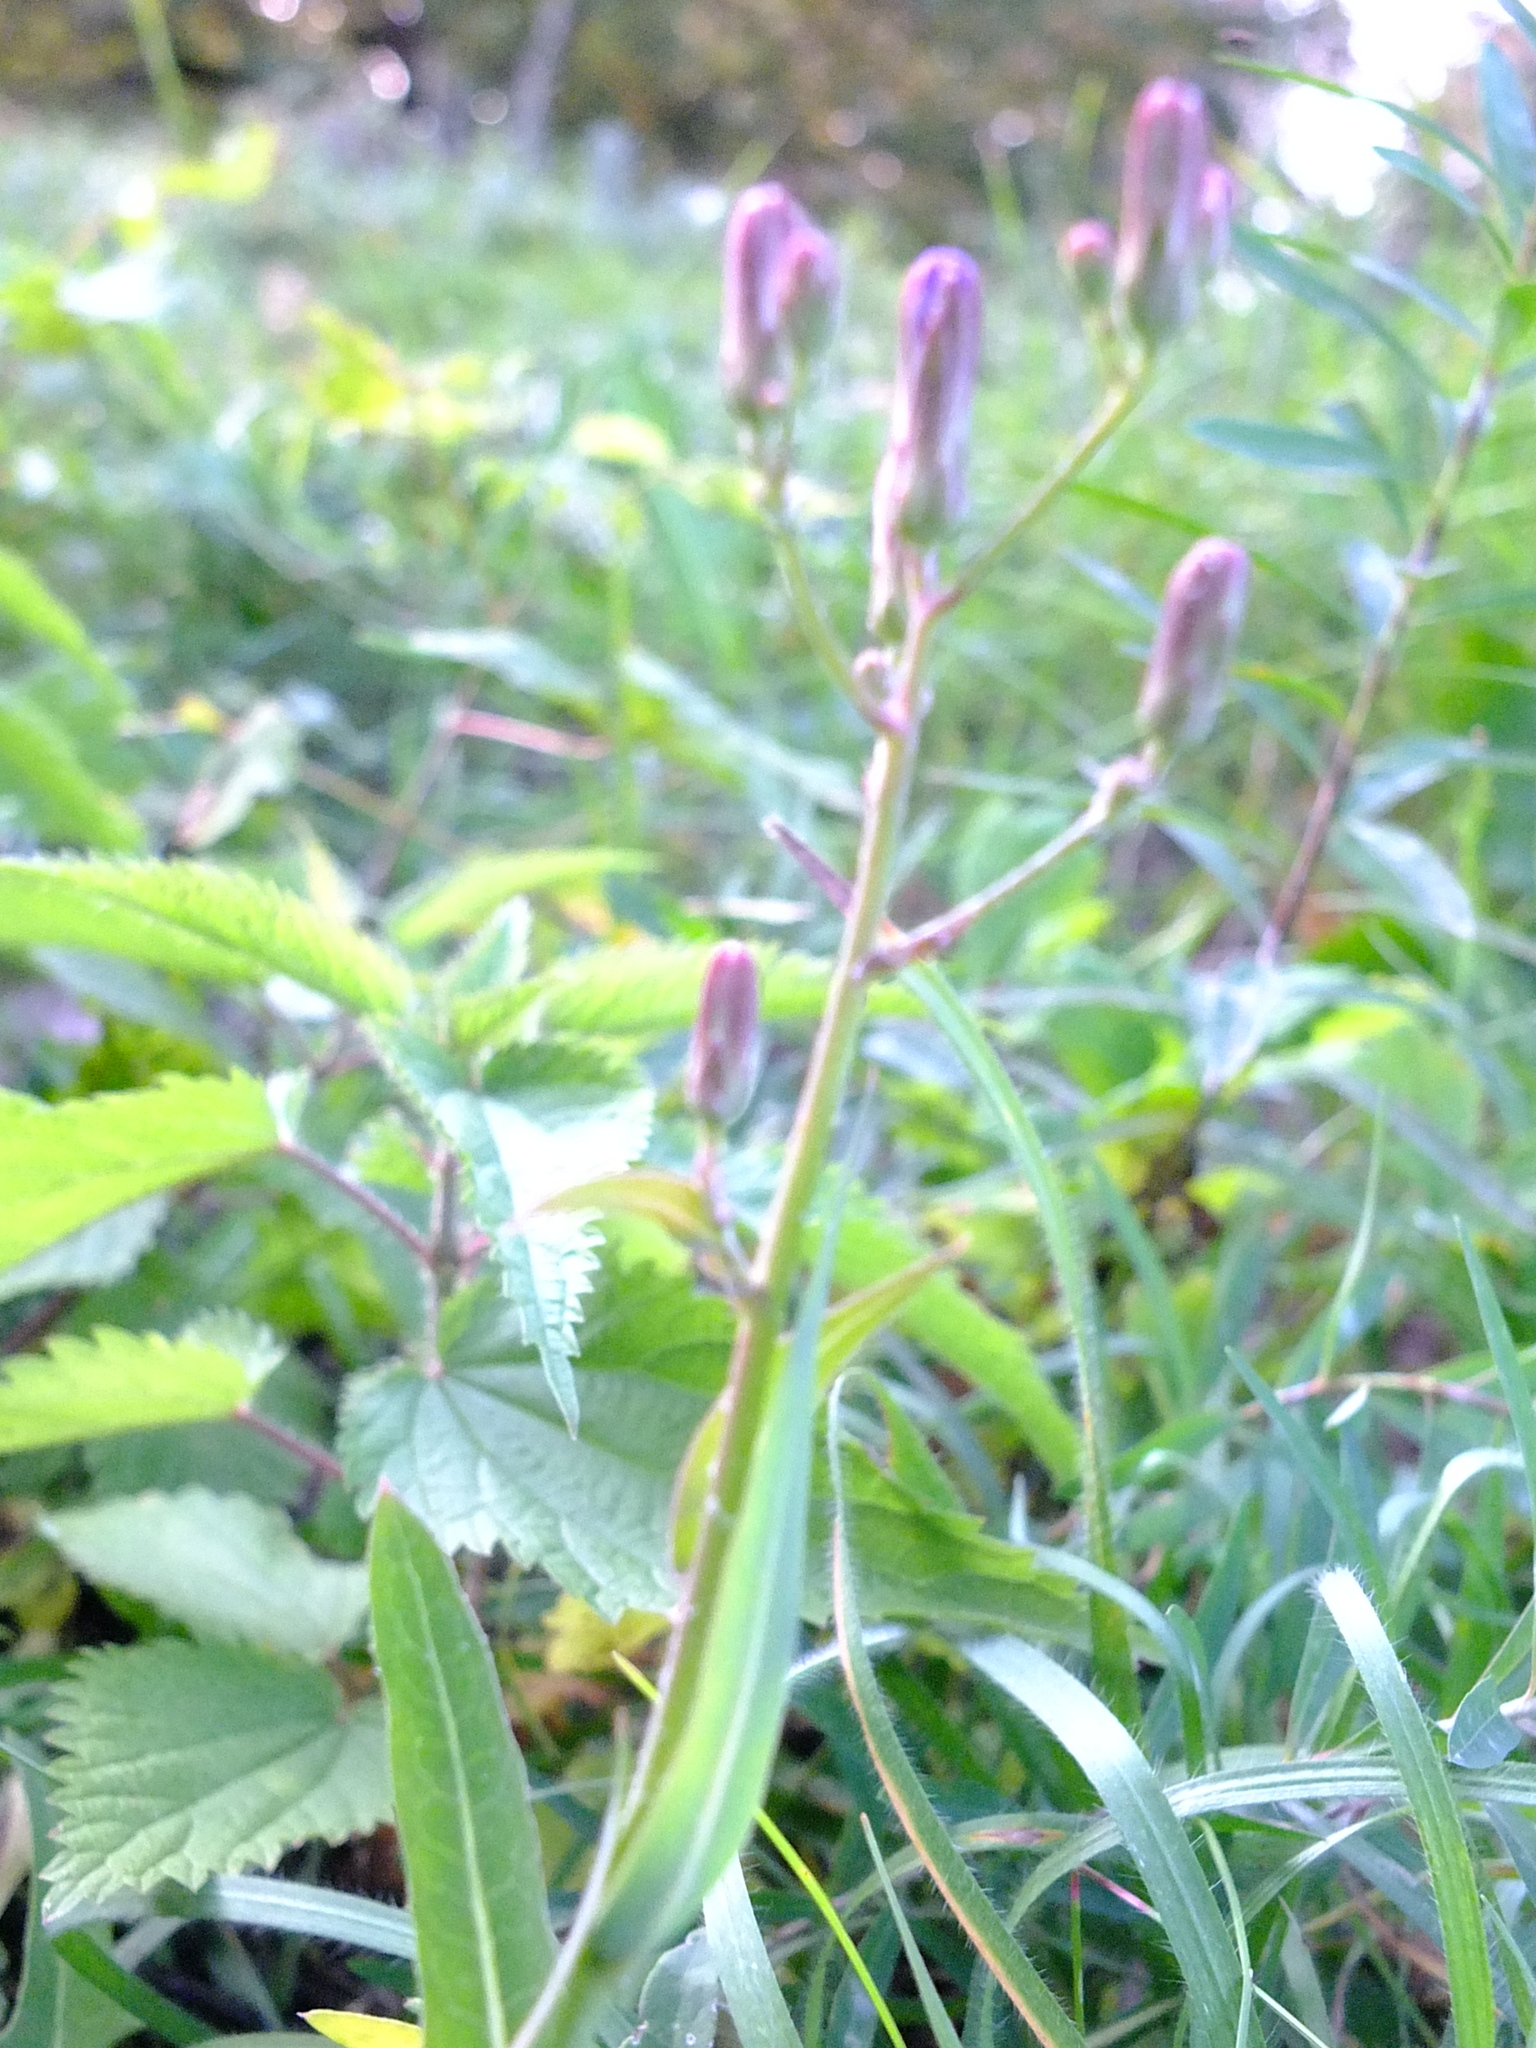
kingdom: Plantae
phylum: Tracheophyta
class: Magnoliopsida
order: Asterales
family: Asteraceae
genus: Lactuca
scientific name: Lactuca tatarica
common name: Blue lettuce
